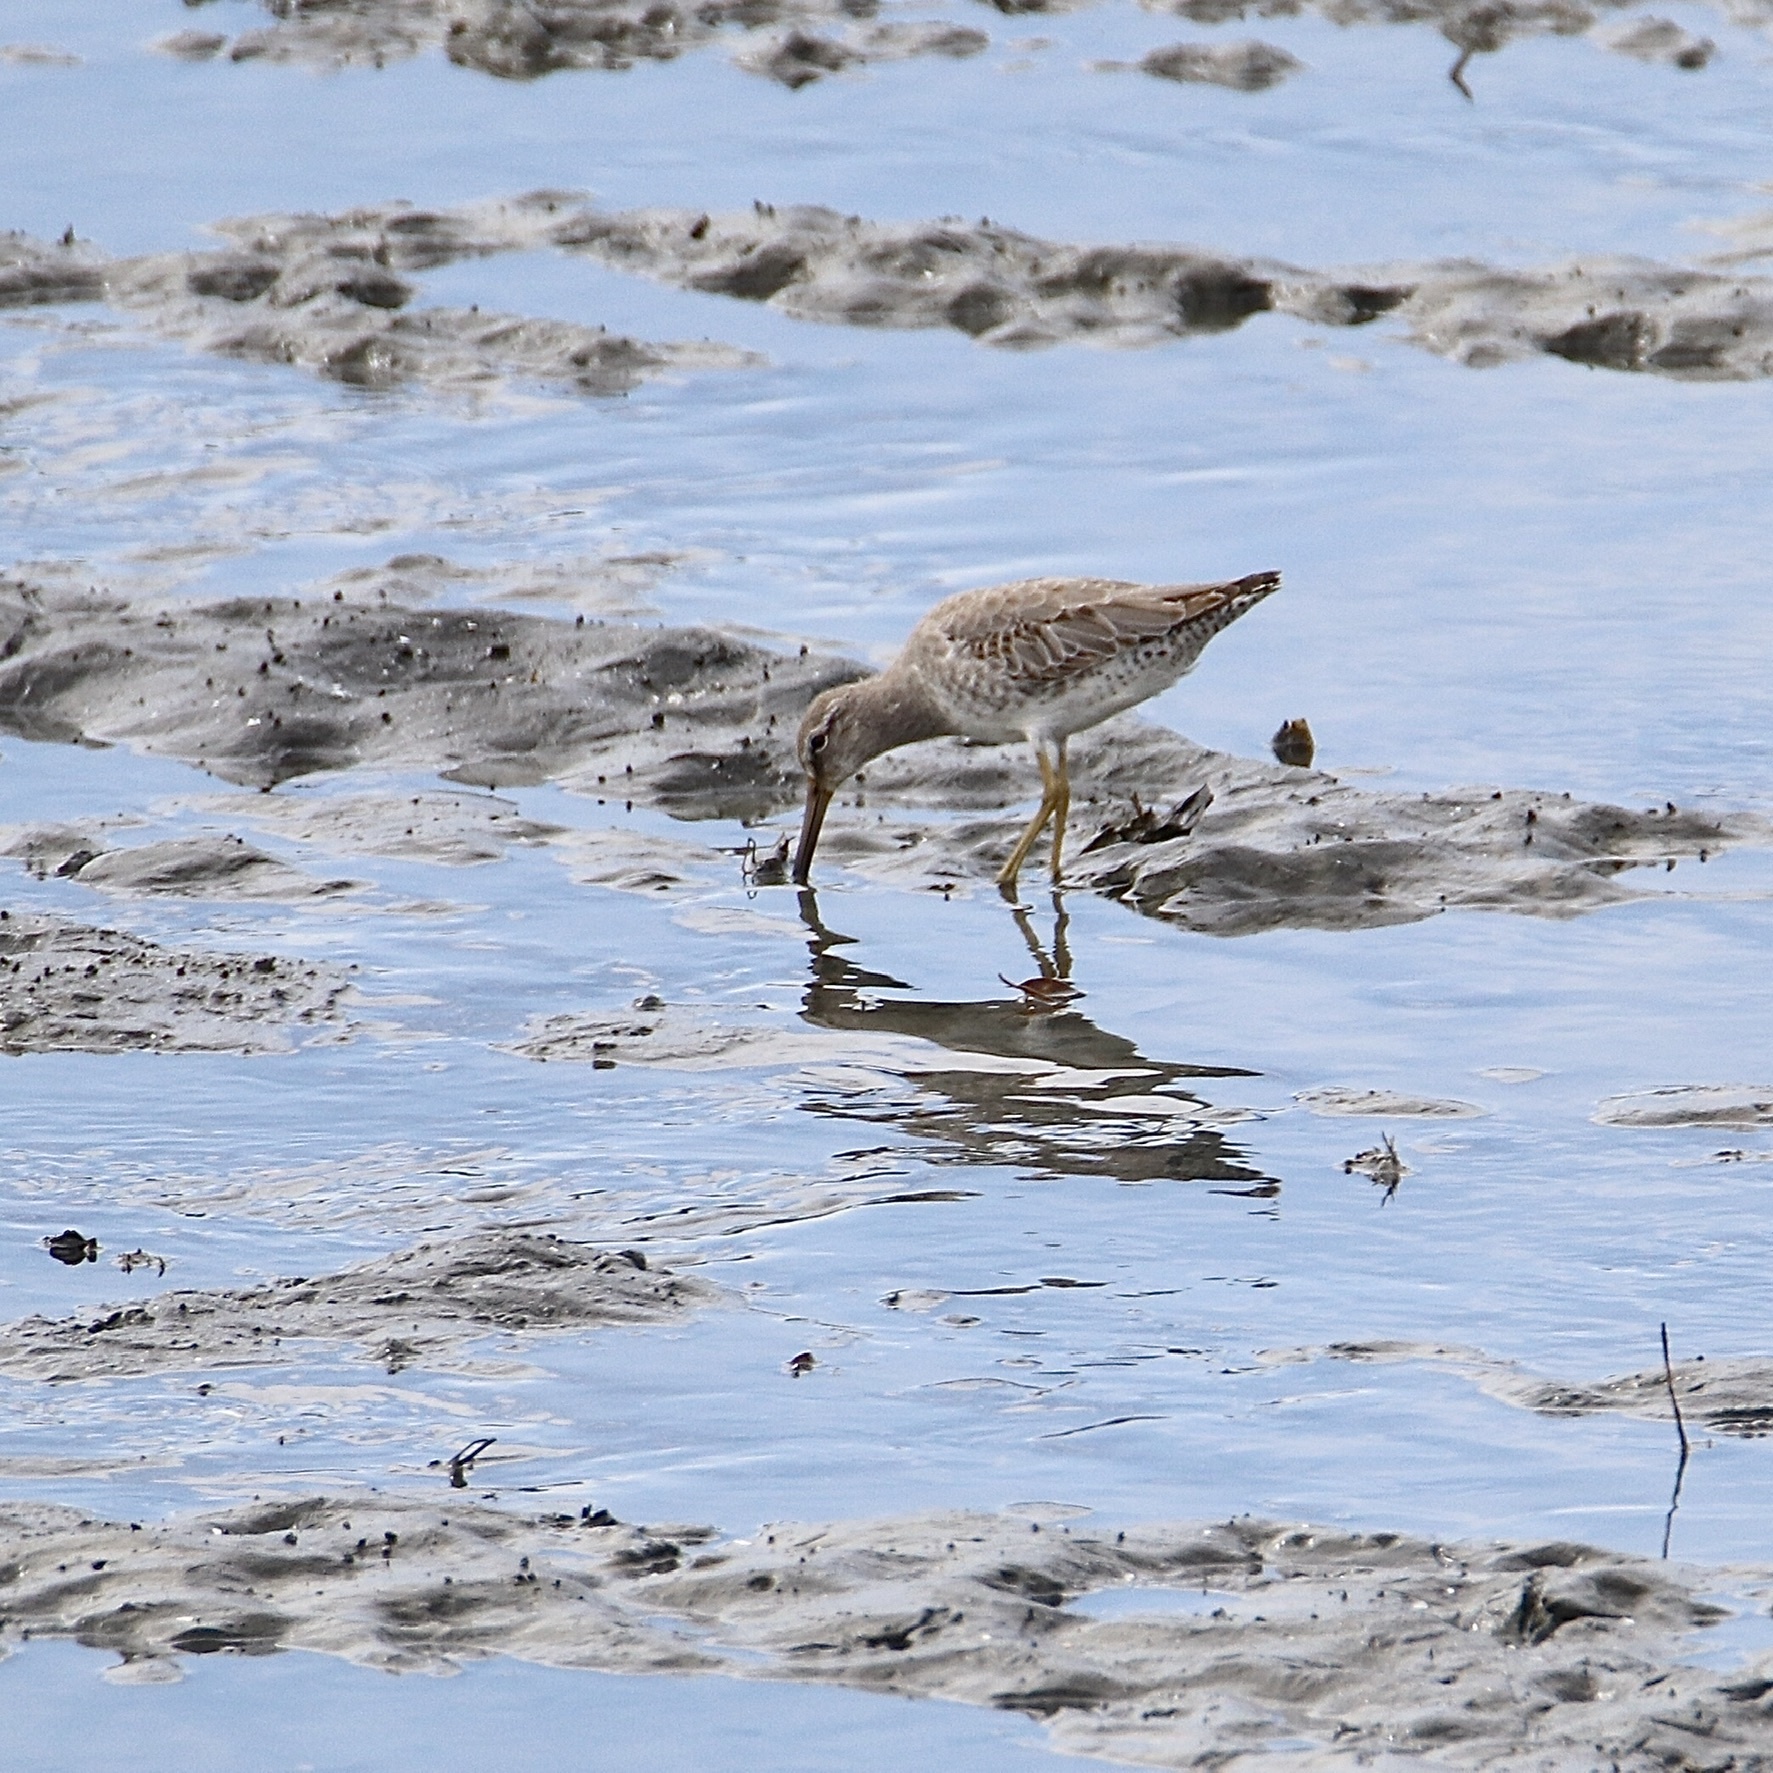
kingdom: Animalia
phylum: Chordata
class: Aves
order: Charadriiformes
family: Scolopacidae
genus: Limnodromus
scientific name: Limnodromus griseus
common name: Short-billed dowitcher
